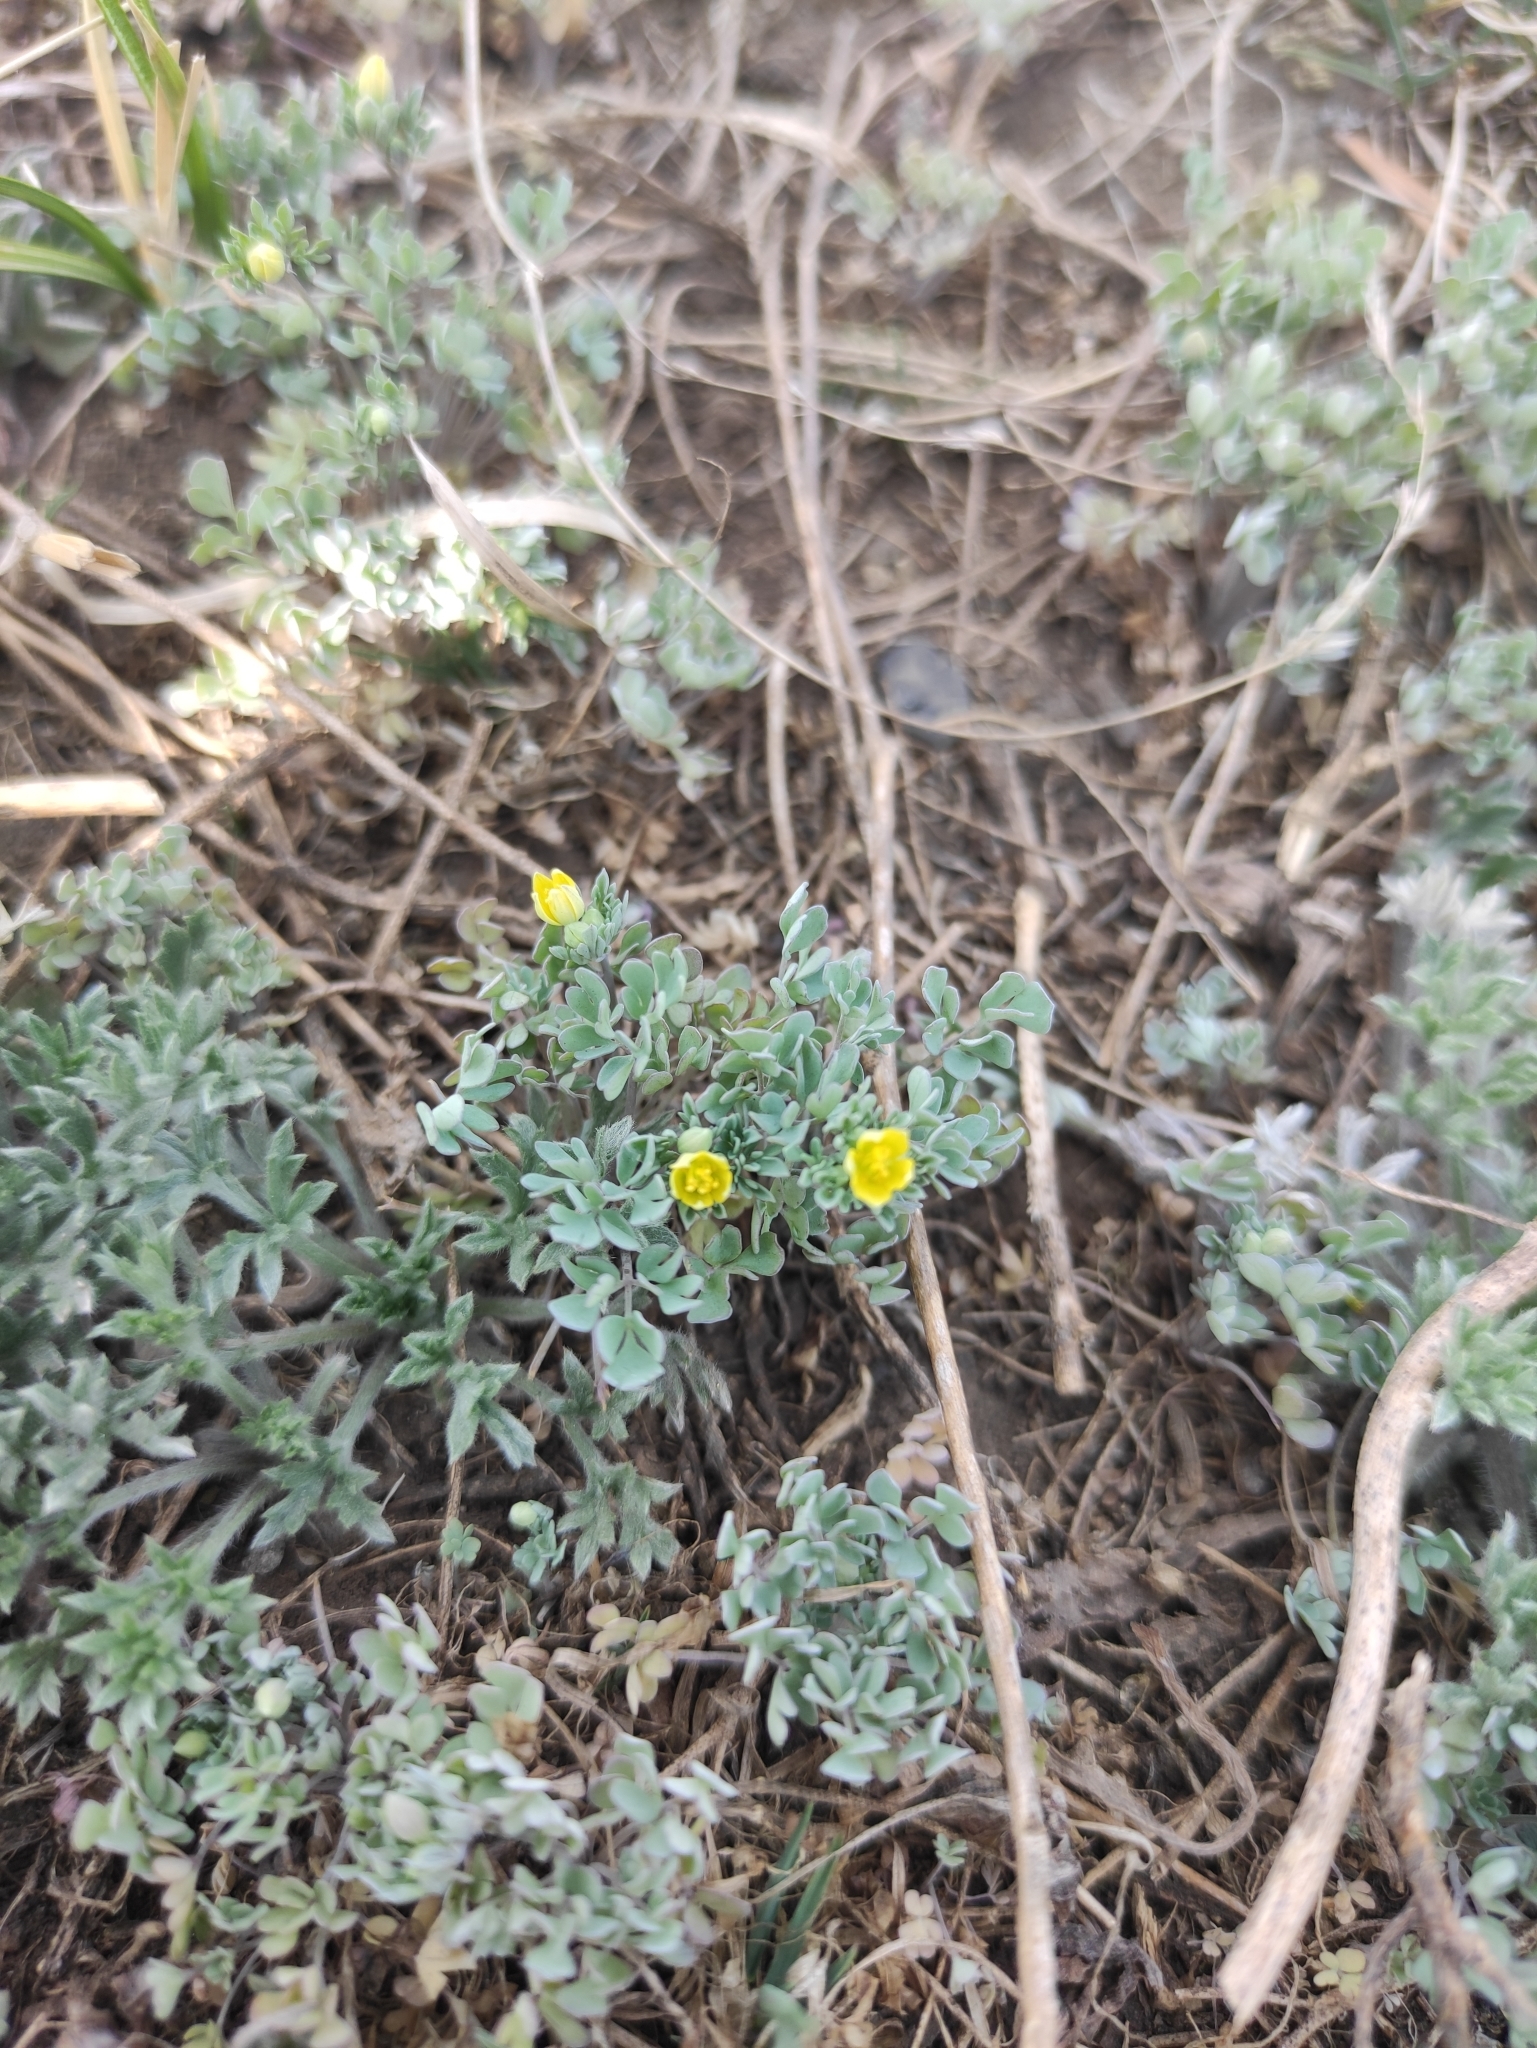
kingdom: Plantae
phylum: Tracheophyta
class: Magnoliopsida
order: Ranunculales
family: Ranunculaceae
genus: Leptopyrum
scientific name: Leptopyrum fumarioides
